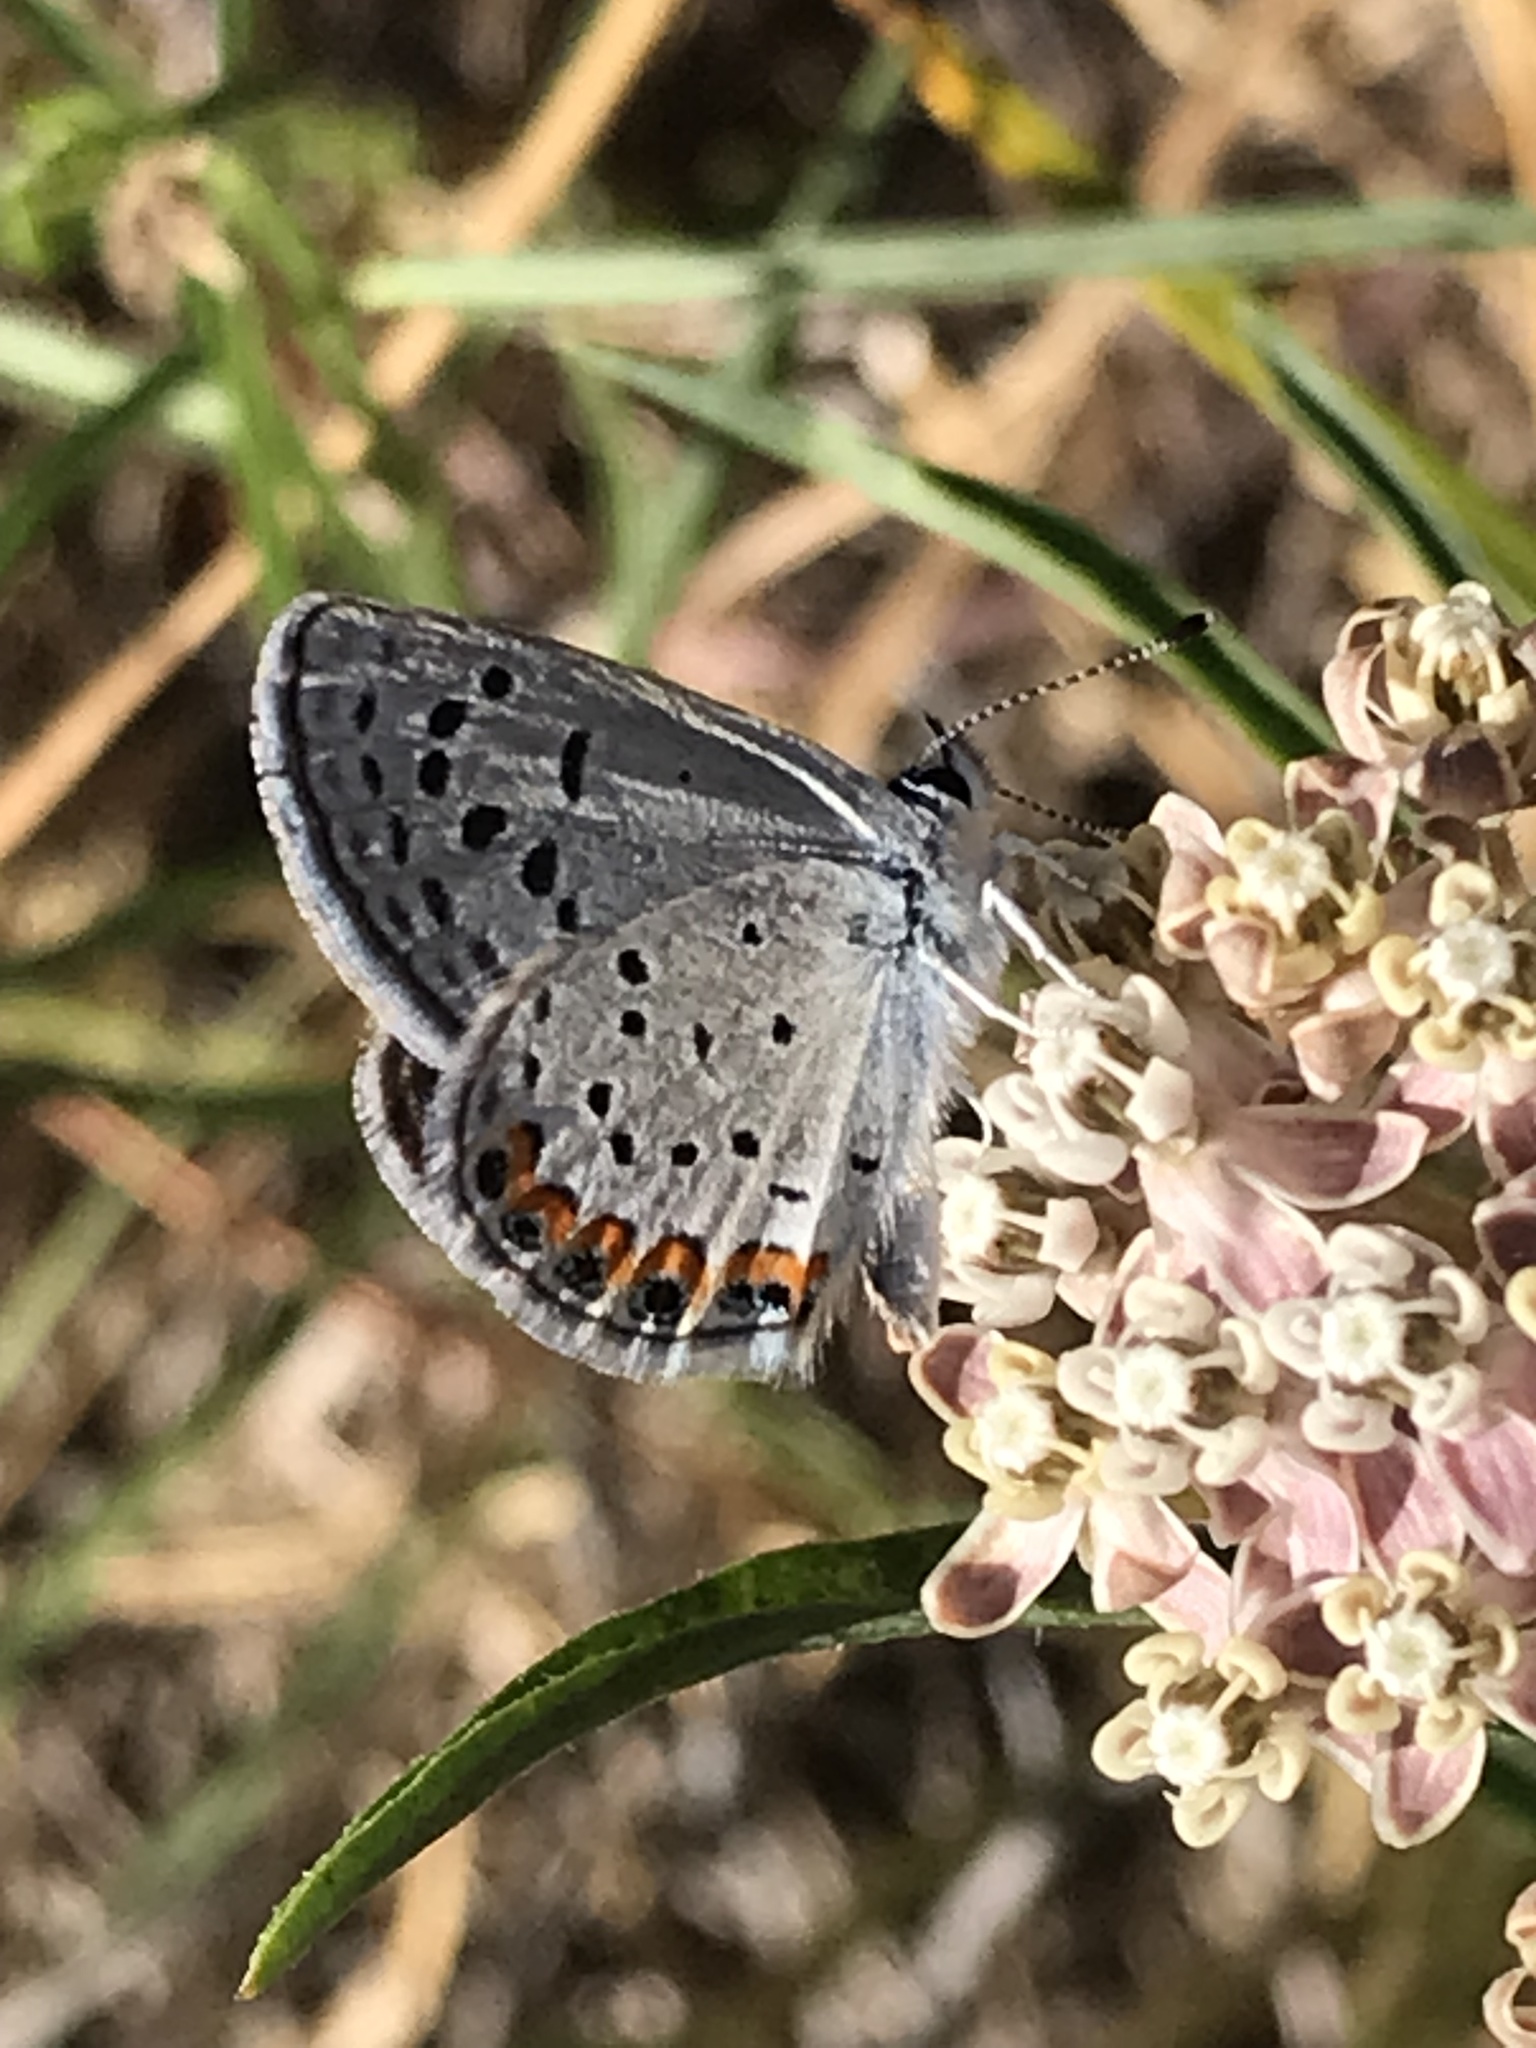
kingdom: Animalia
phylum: Arthropoda
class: Insecta
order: Lepidoptera
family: Lycaenidae
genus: Icaricia
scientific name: Icaricia acmon
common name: Acmon blue
